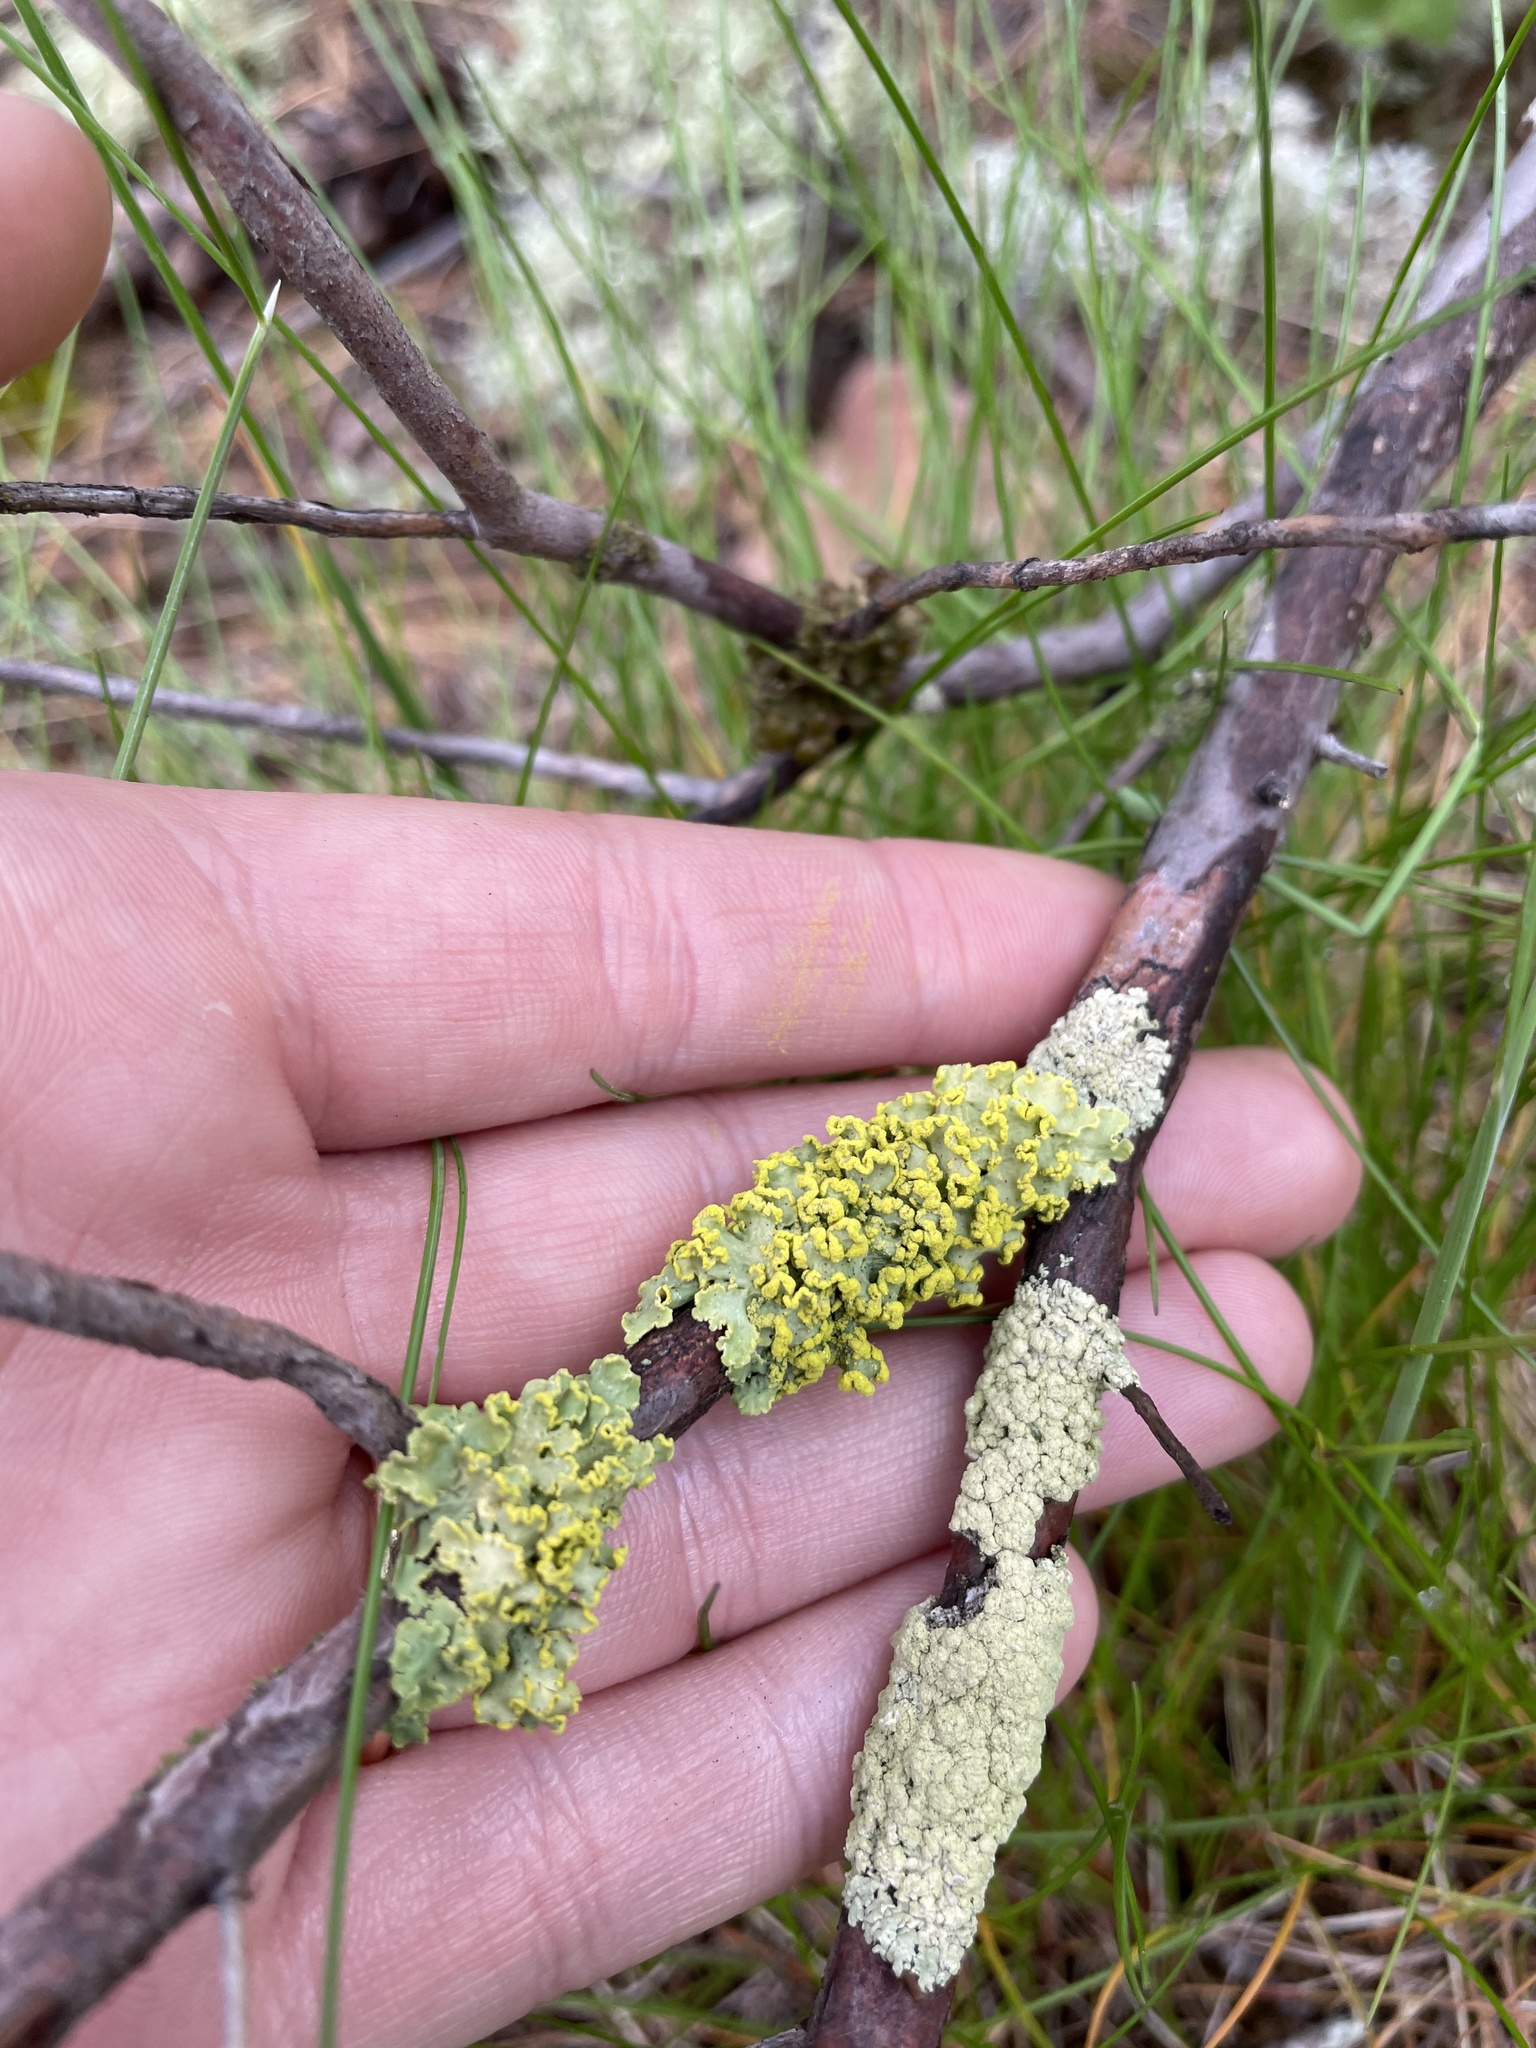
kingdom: Fungi
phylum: Ascomycota
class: Lecanoromycetes
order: Lecanorales
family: Parmeliaceae
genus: Vulpicida
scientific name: Vulpicida pinastri
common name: Powdered sunshine lichen
